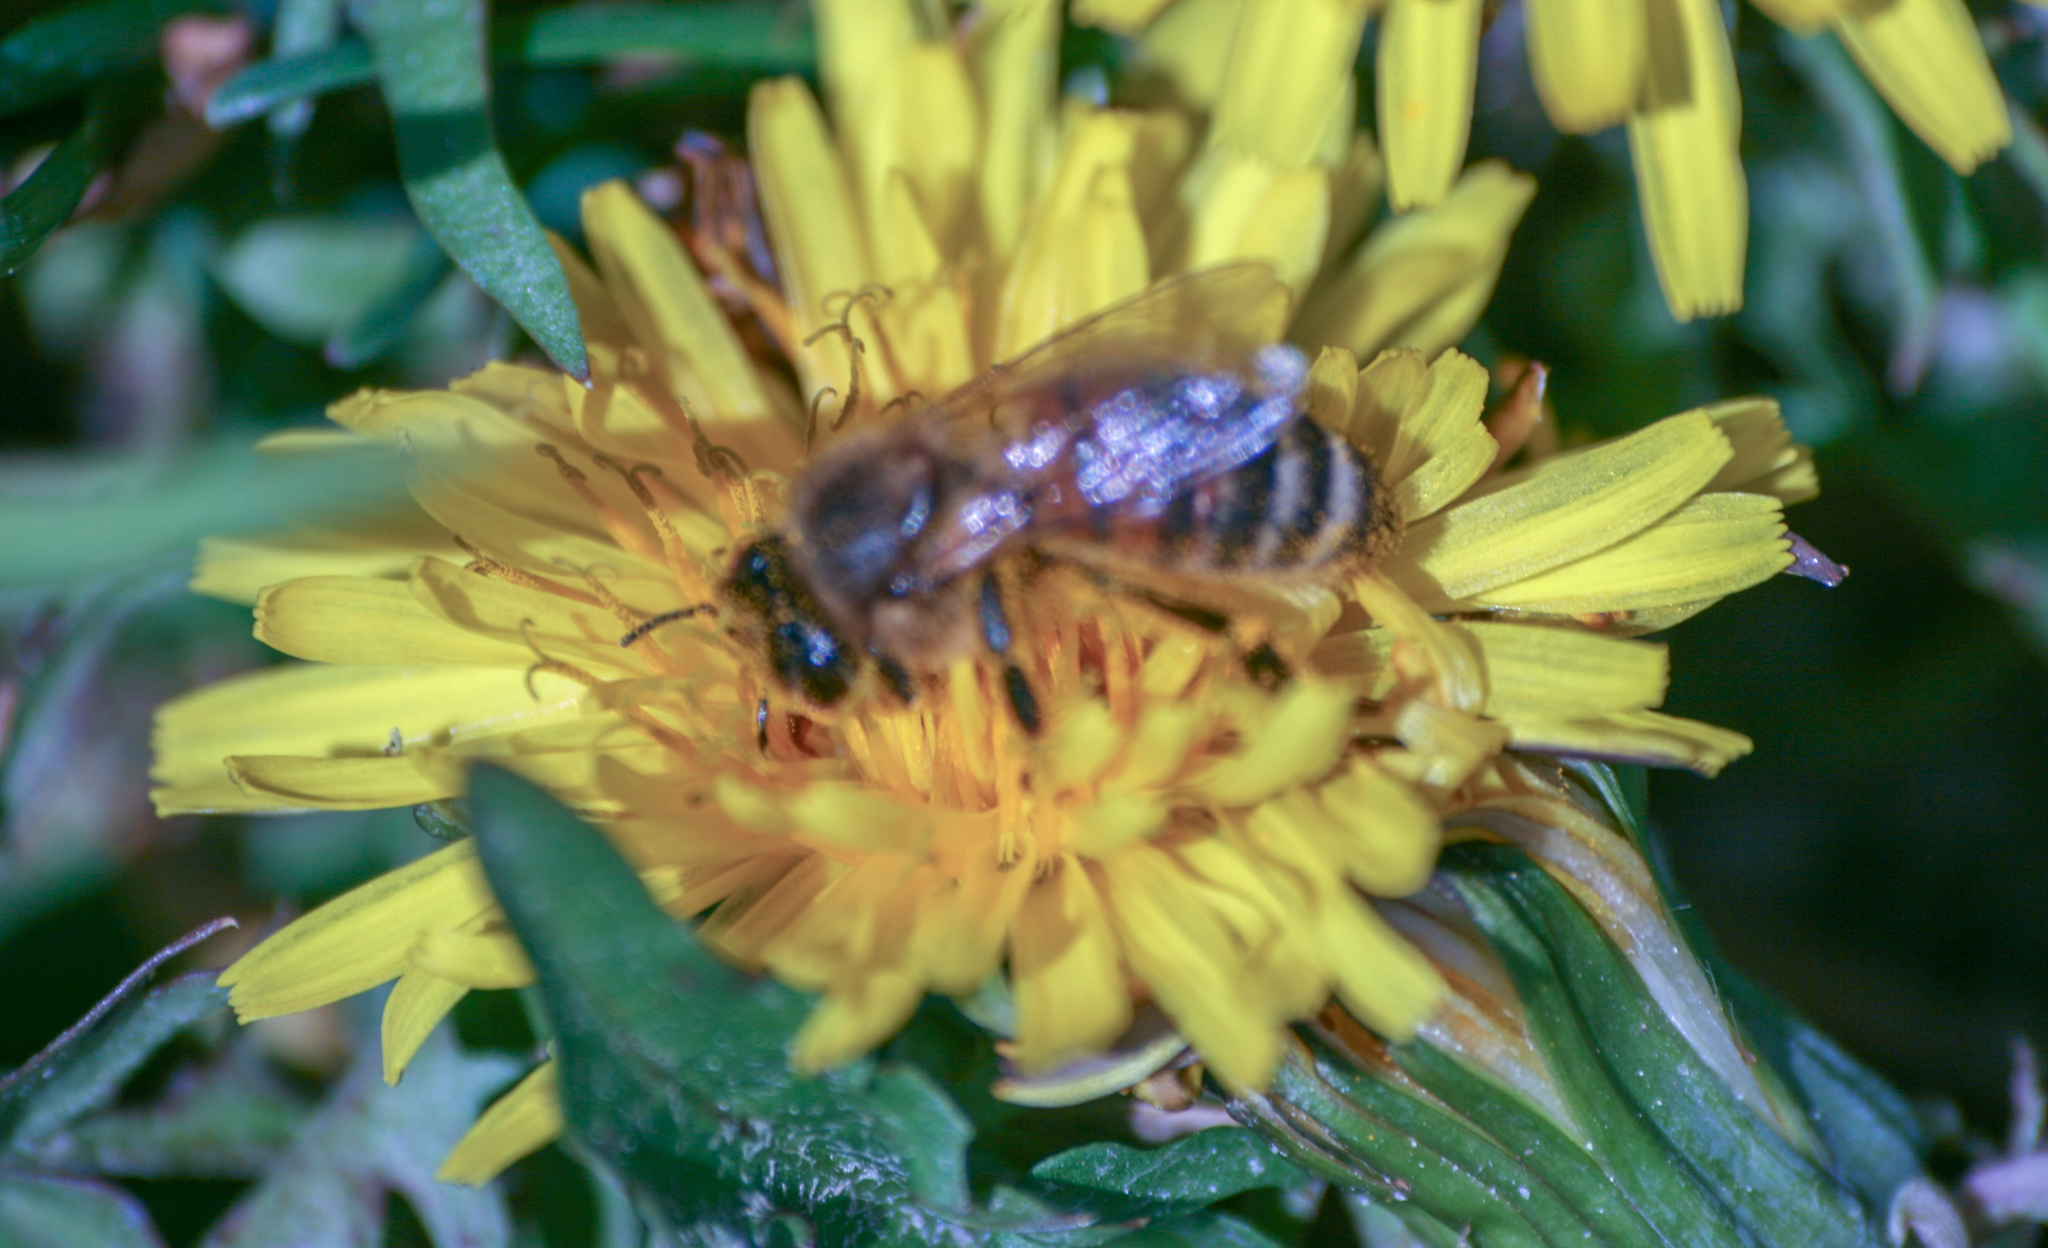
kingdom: Animalia
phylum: Arthropoda
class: Insecta
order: Hymenoptera
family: Apidae
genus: Apis
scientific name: Apis mellifera
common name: Honey bee
